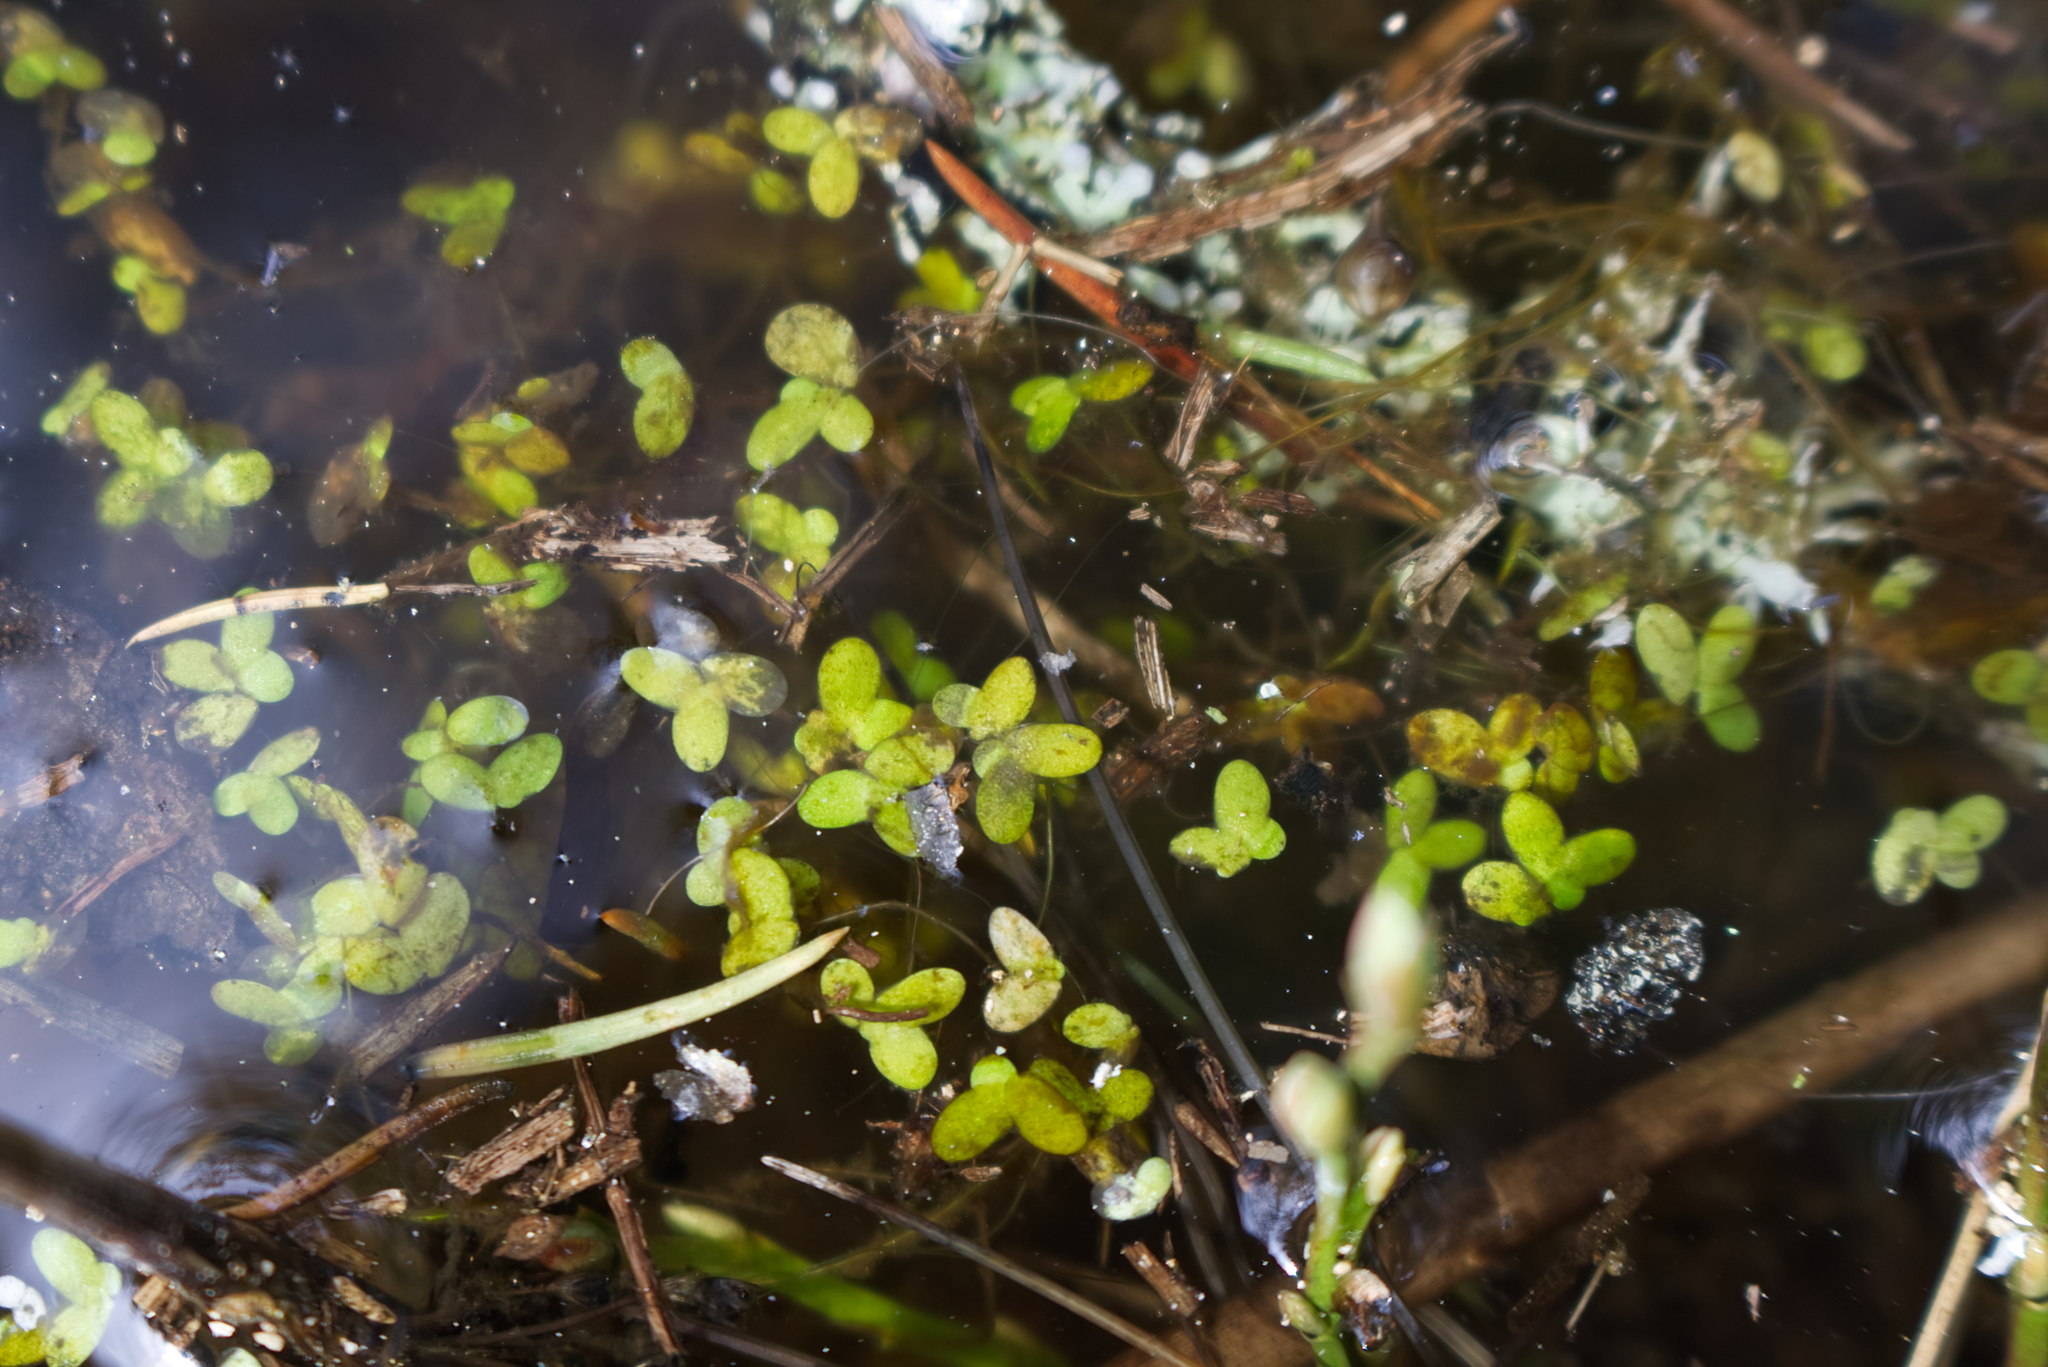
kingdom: Plantae
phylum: Tracheophyta
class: Liliopsida
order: Alismatales
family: Araceae
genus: Lemna
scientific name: Lemna minor
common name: Common duckweed
